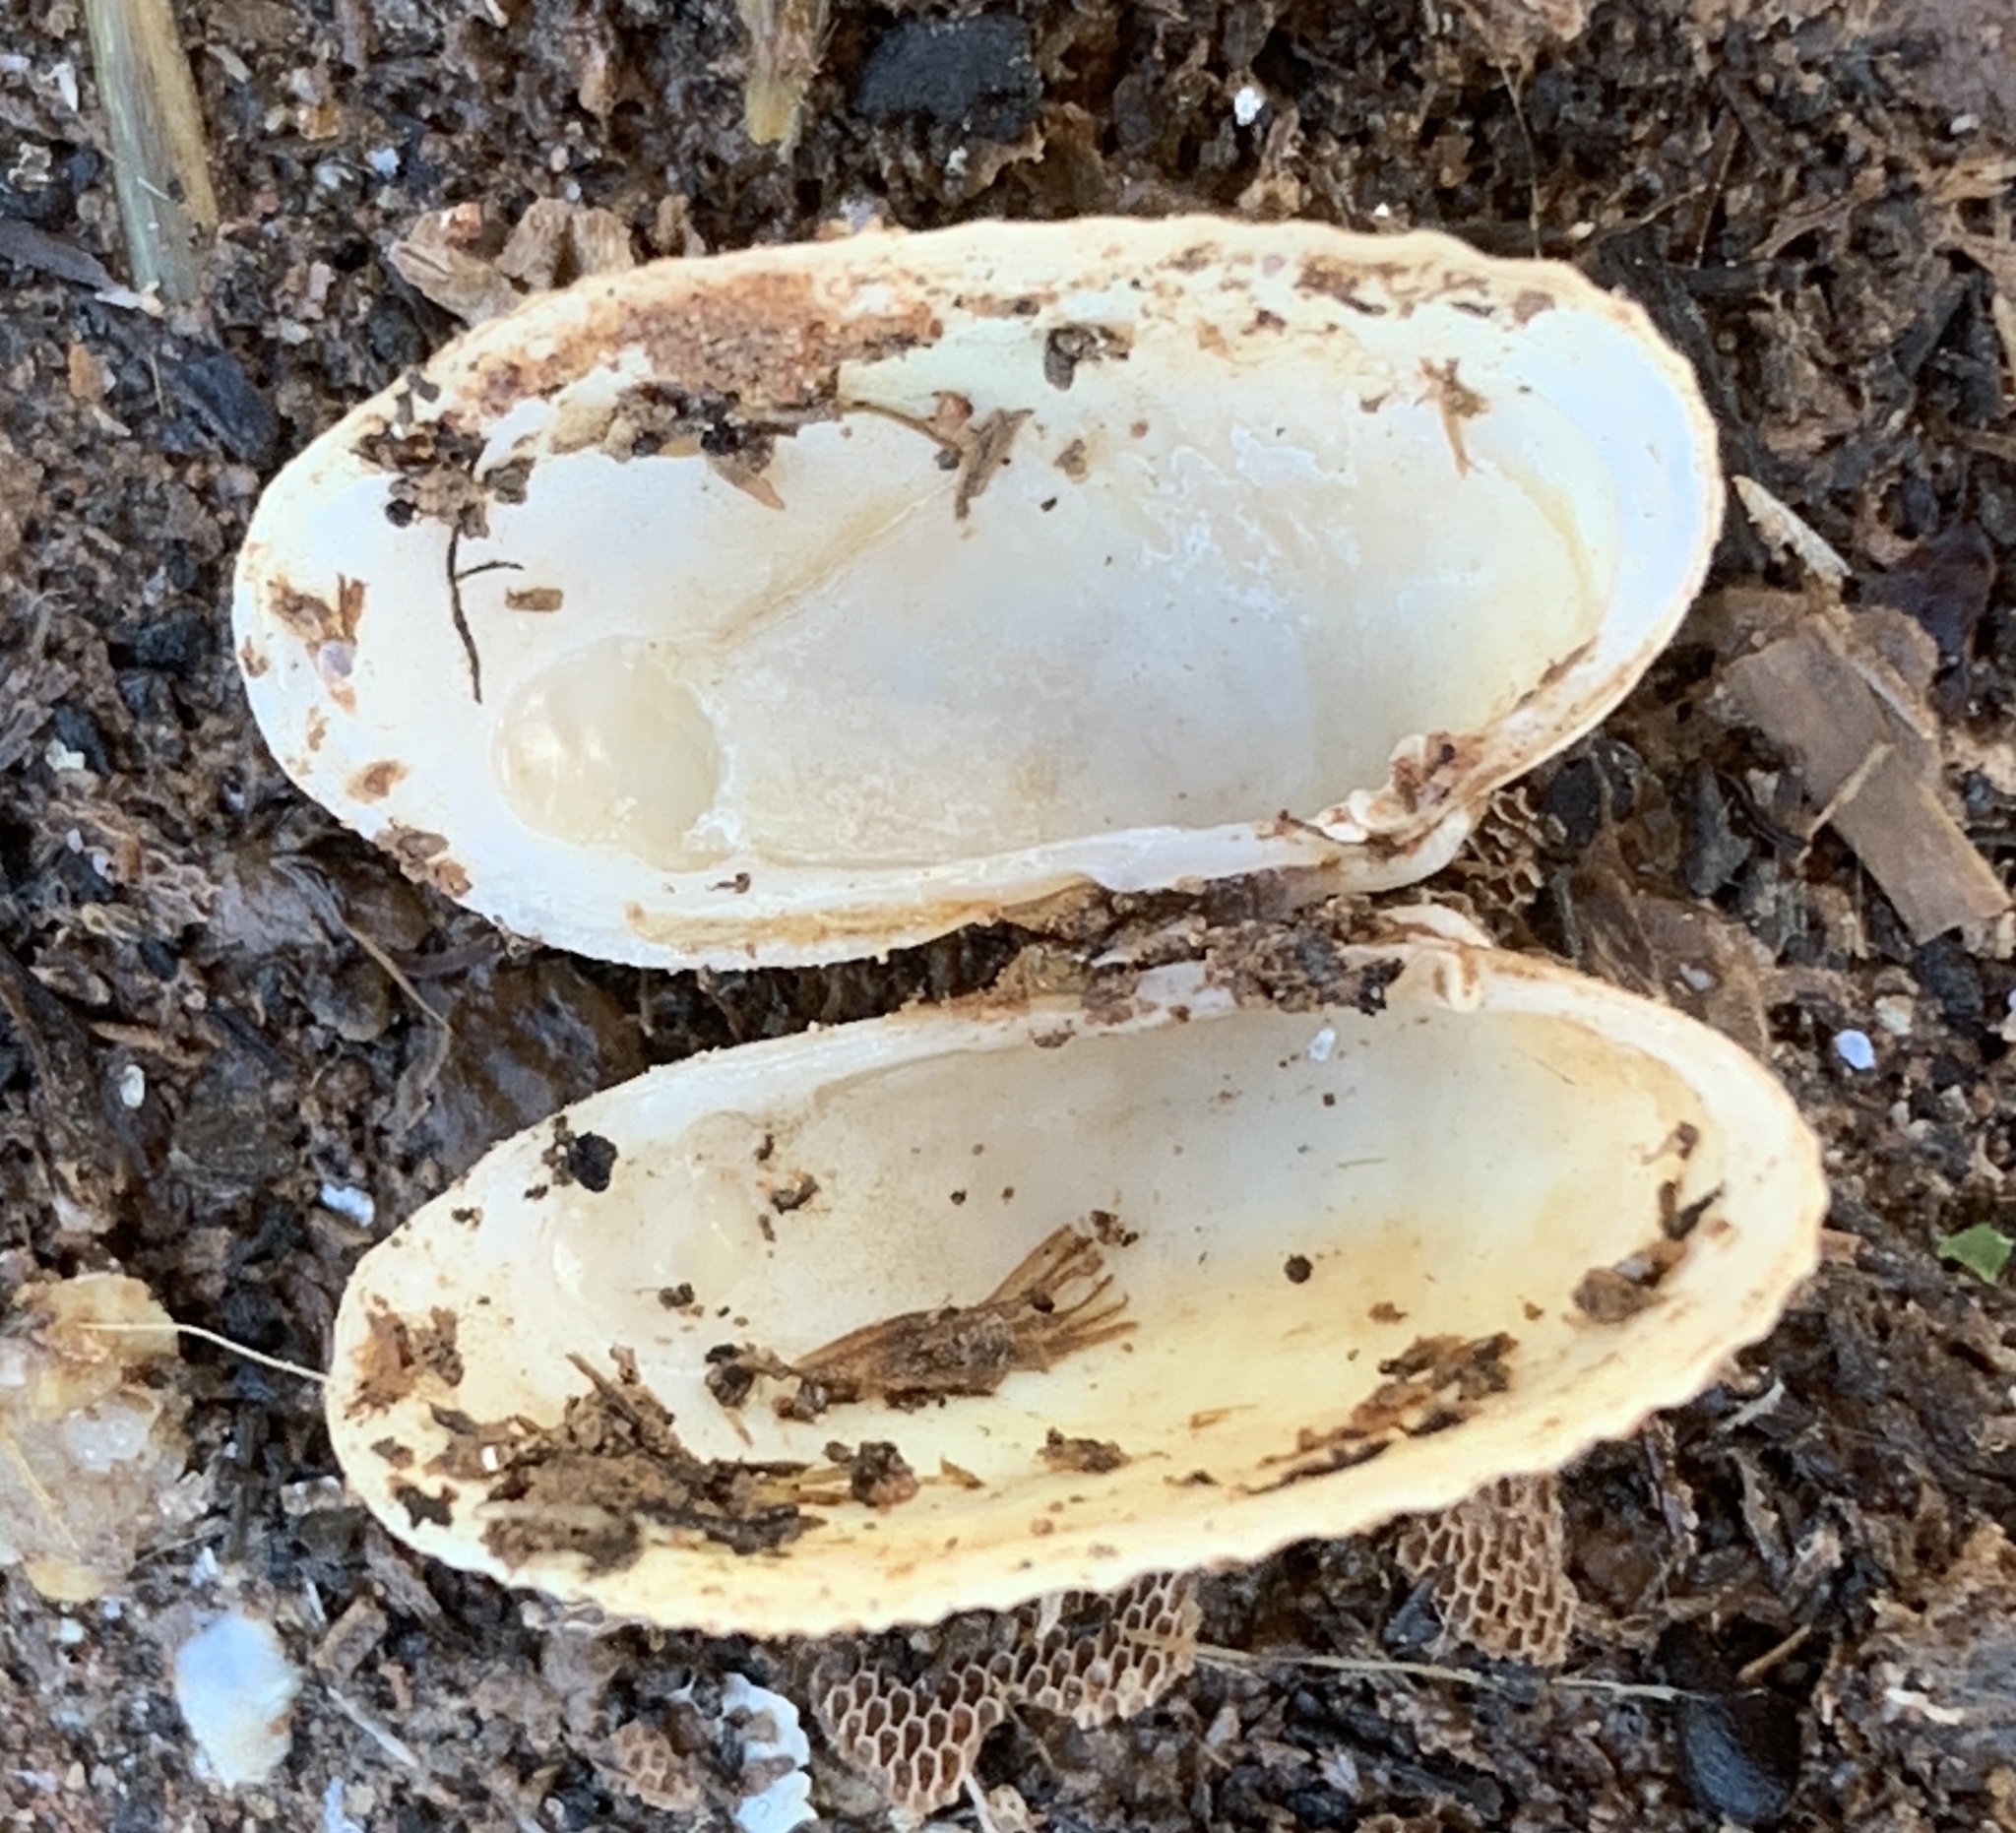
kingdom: Animalia
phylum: Mollusca
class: Bivalvia
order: Venerida
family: Veneridae
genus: Petricolaria
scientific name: Petricolaria pholadiformis
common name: American piddock
